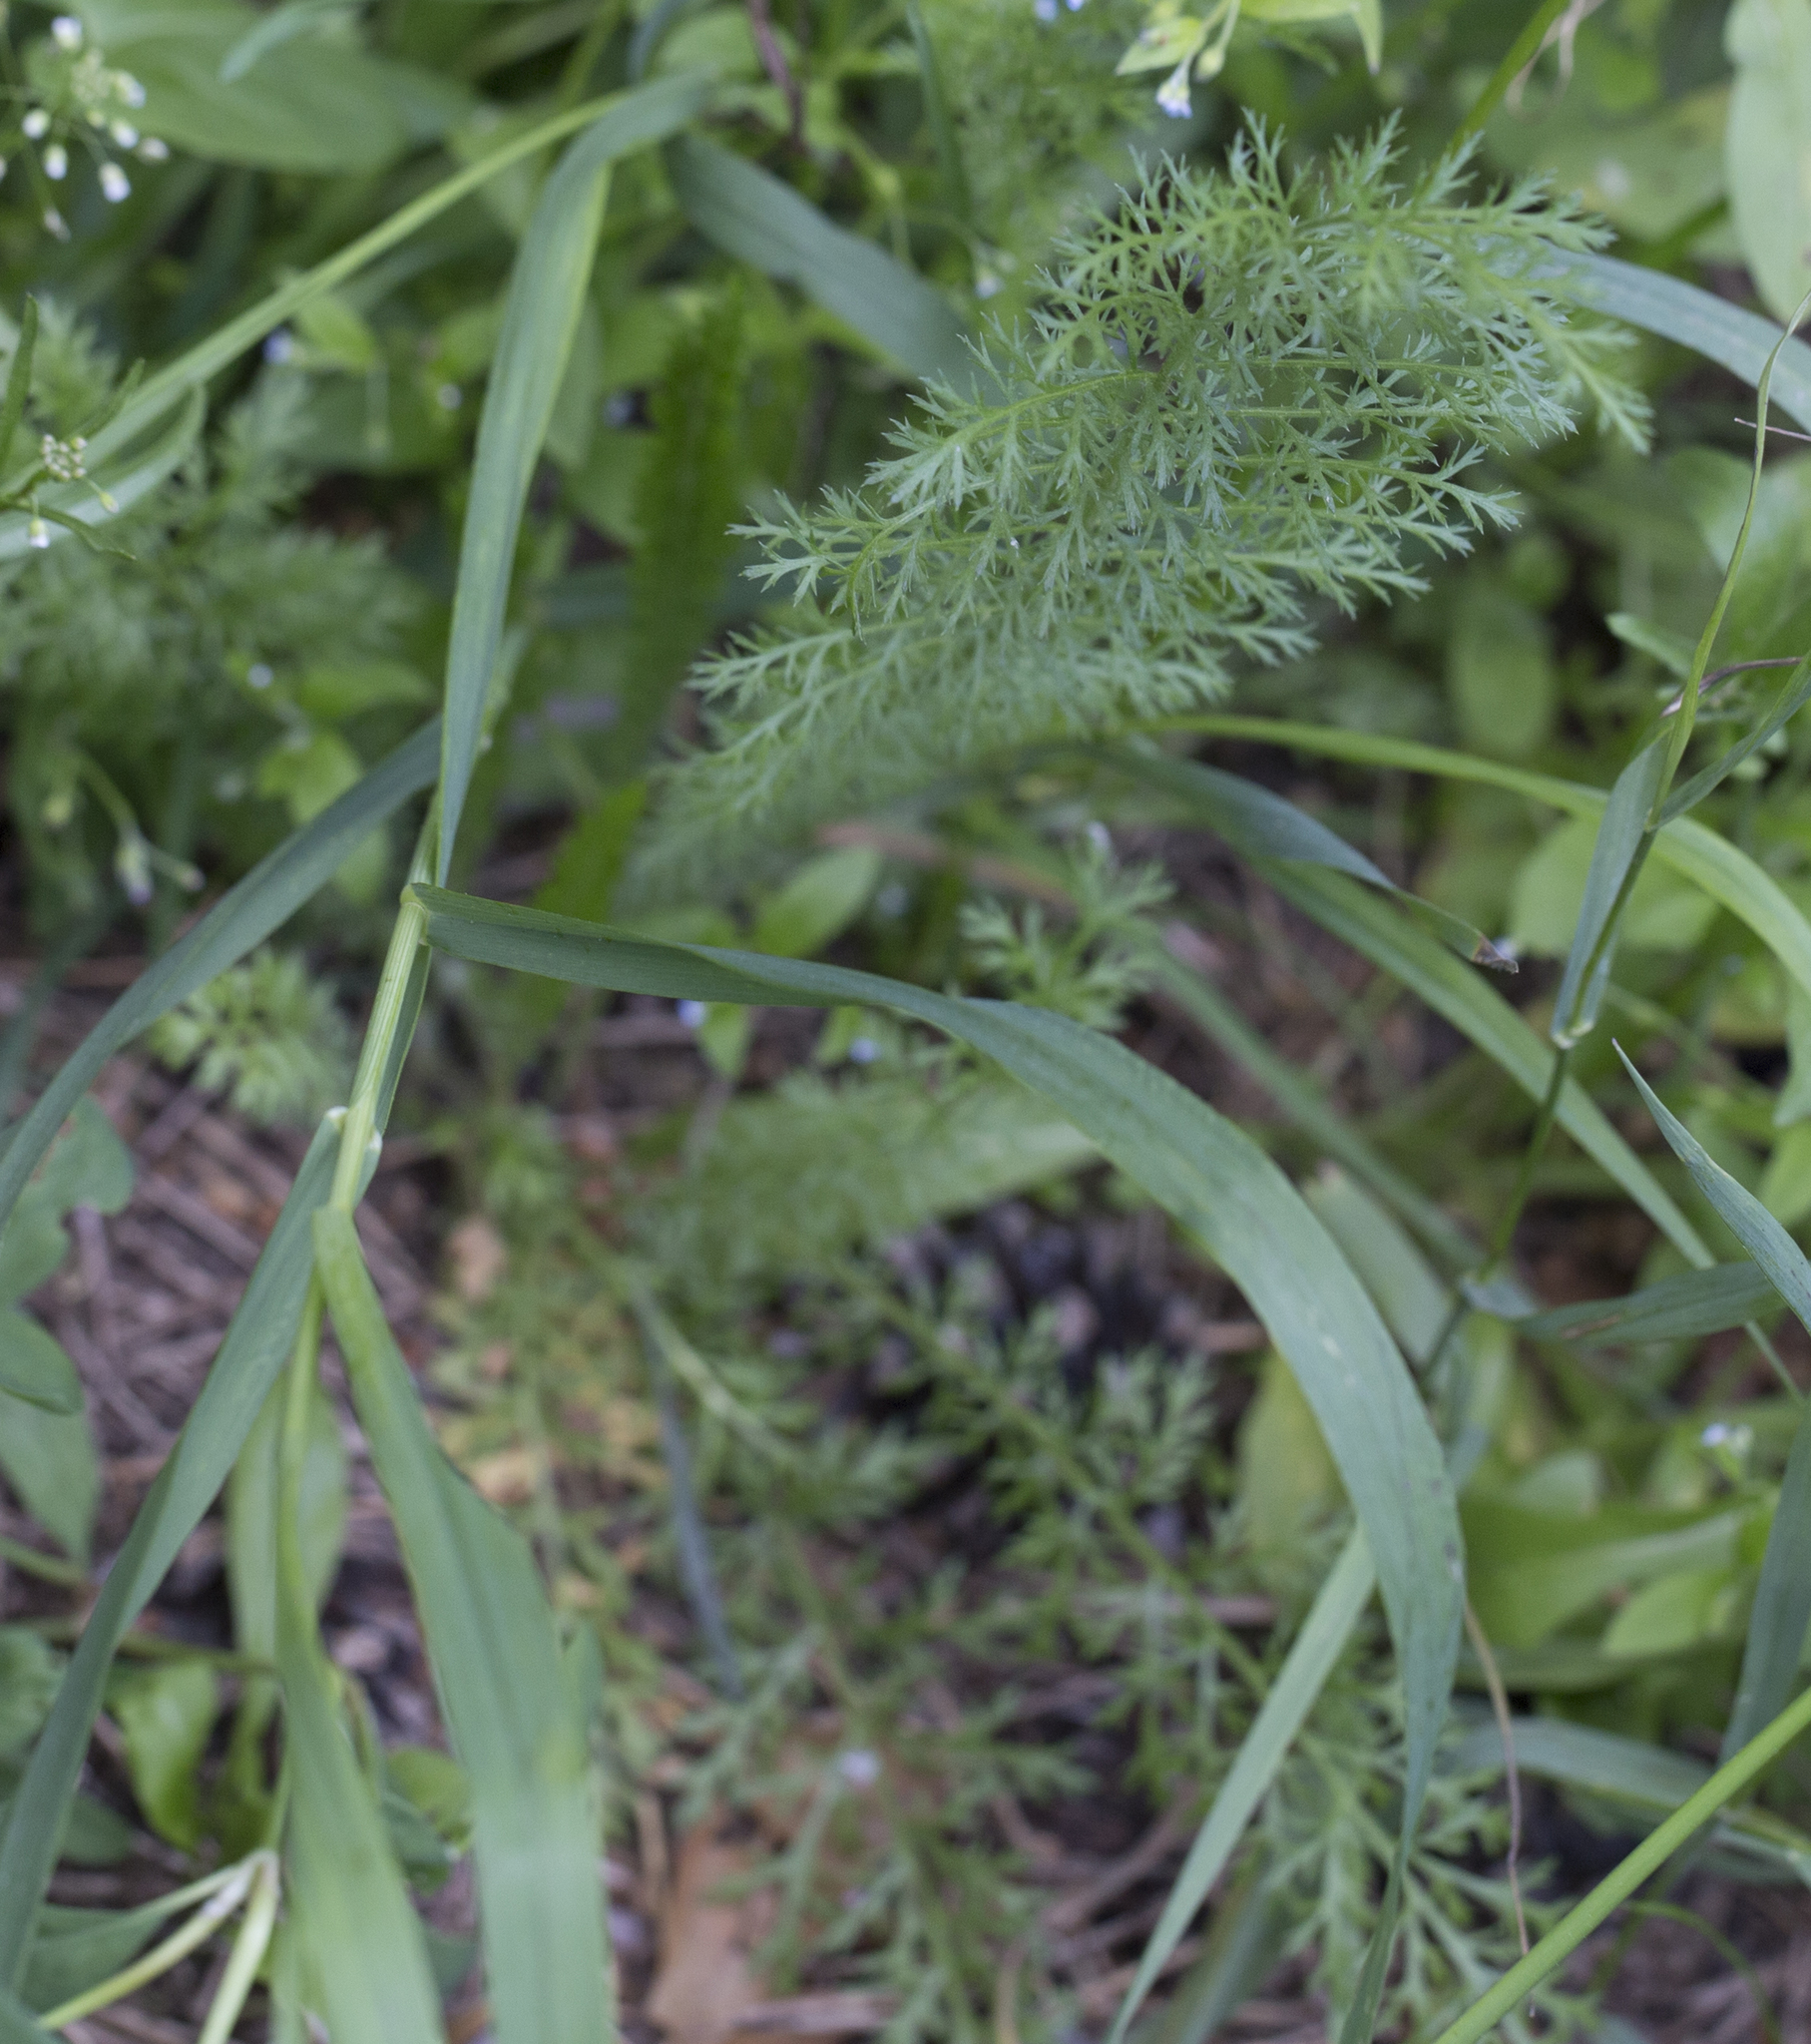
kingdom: Plantae
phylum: Tracheophyta
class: Magnoliopsida
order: Asterales
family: Asteraceae
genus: Achillea
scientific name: Achillea millefolium
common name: Yarrow
